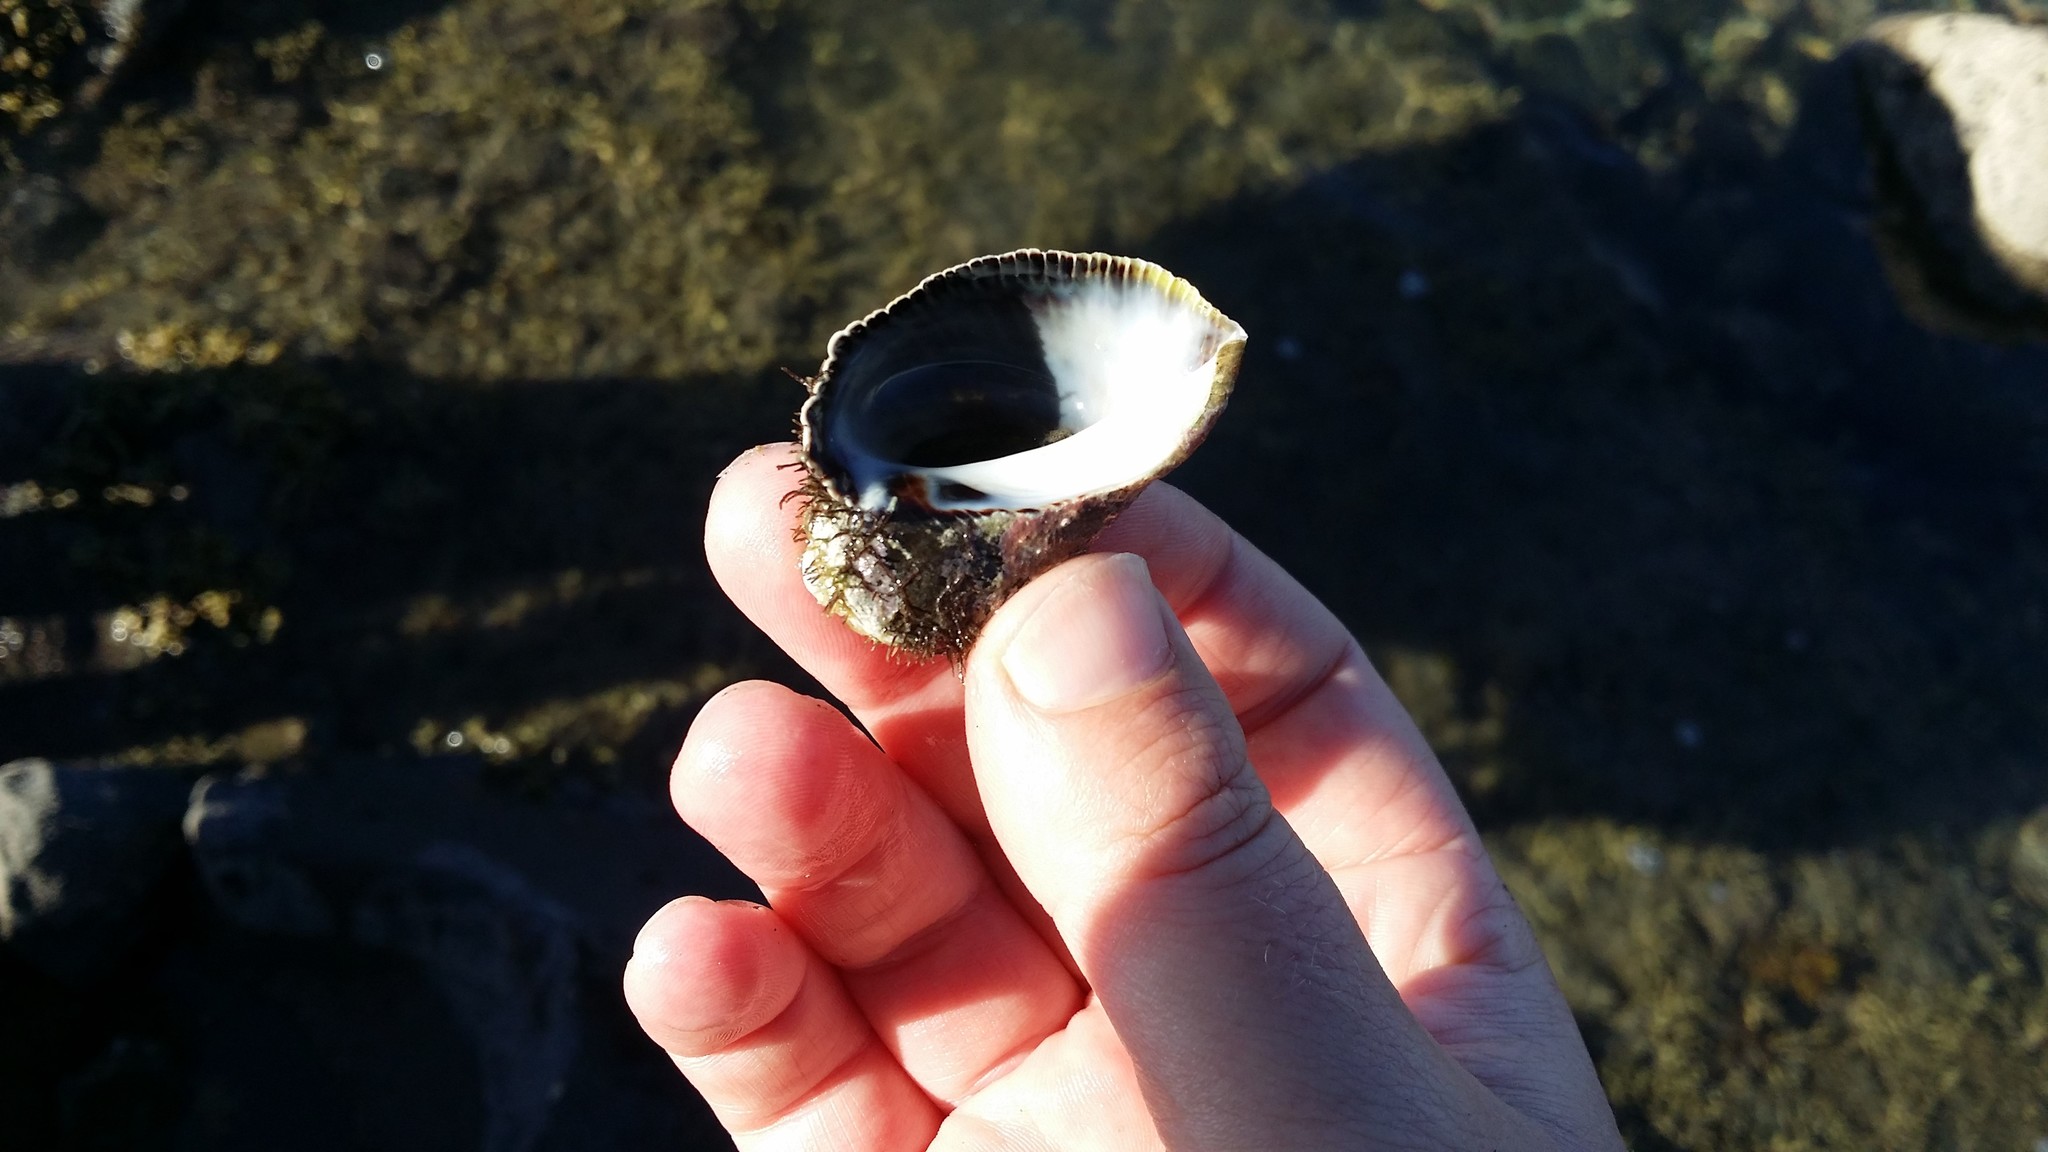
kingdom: Animalia
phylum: Mollusca
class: Gastropoda
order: Neogastropoda
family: Muricidae
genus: Haustrum
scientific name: Haustrum haustorium
